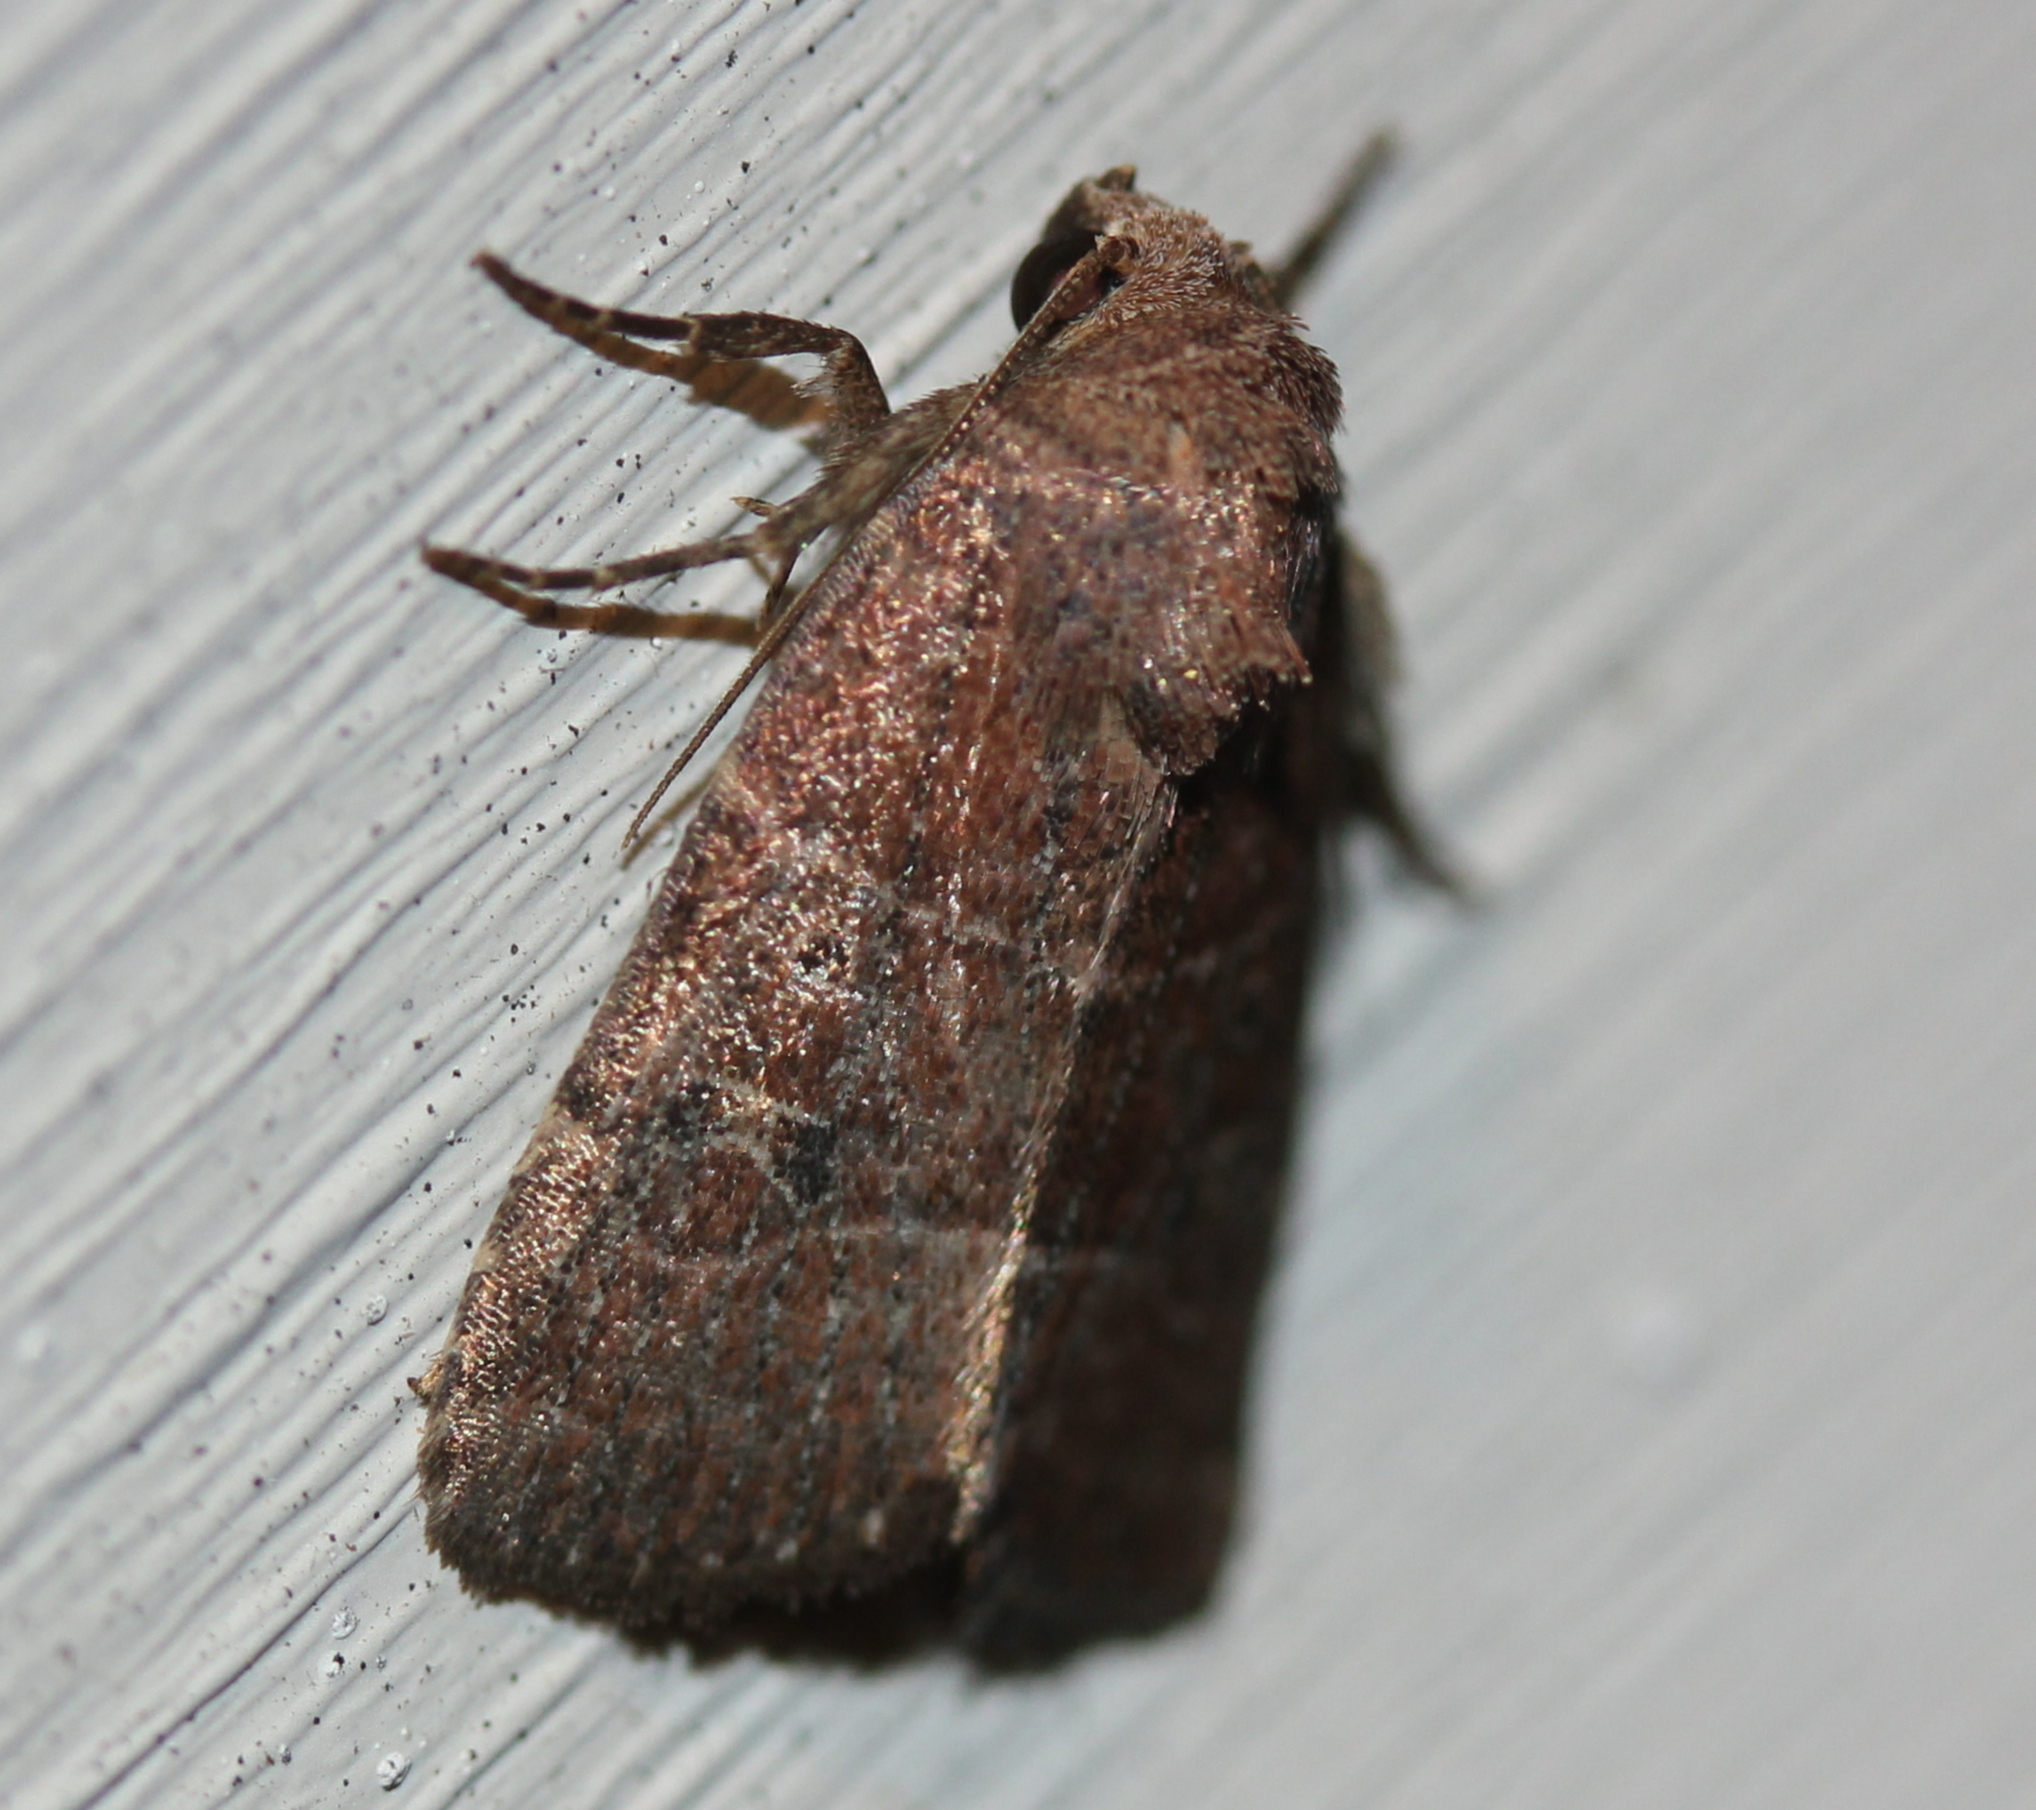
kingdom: Animalia
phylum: Arthropoda
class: Insecta
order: Lepidoptera
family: Noctuidae
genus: Elaphria
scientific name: Elaphria grata
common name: Grateful midget moth
